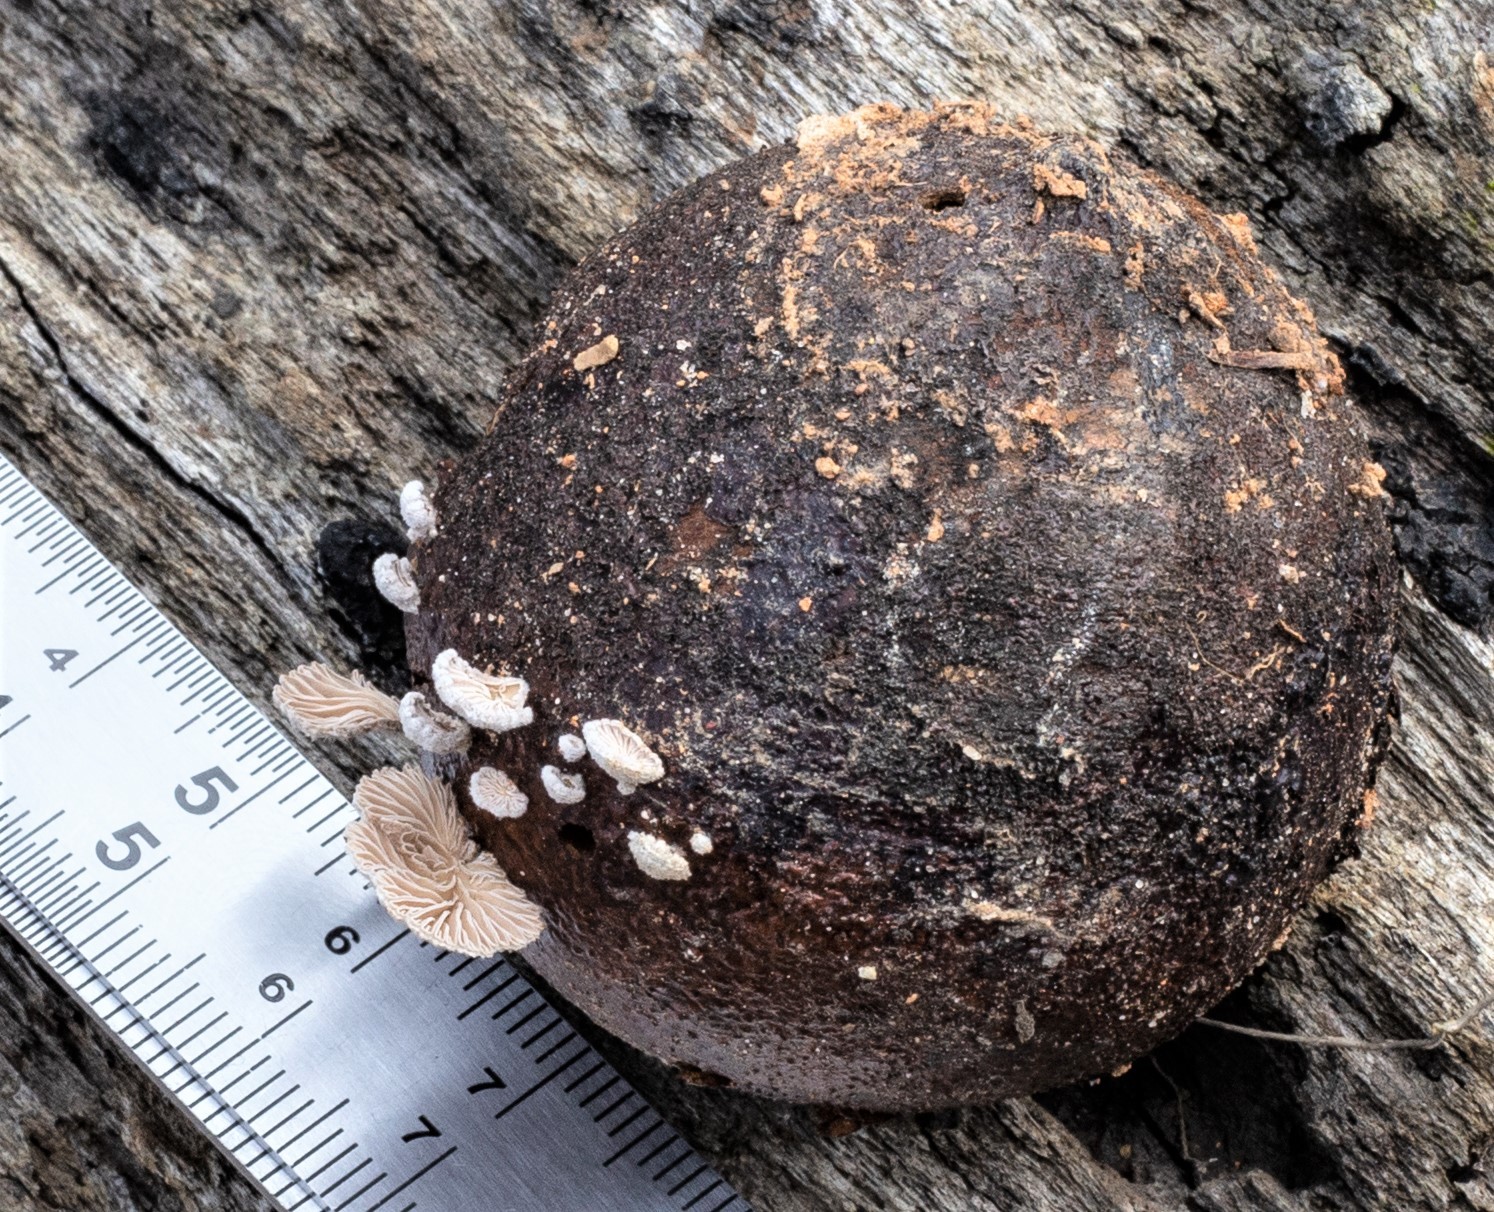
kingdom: Fungi
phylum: Basidiomycota
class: Agaricomycetes
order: Agaricales
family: Schizophyllaceae
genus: Schizophyllum
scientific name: Schizophyllum commune
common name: Common porecrust
